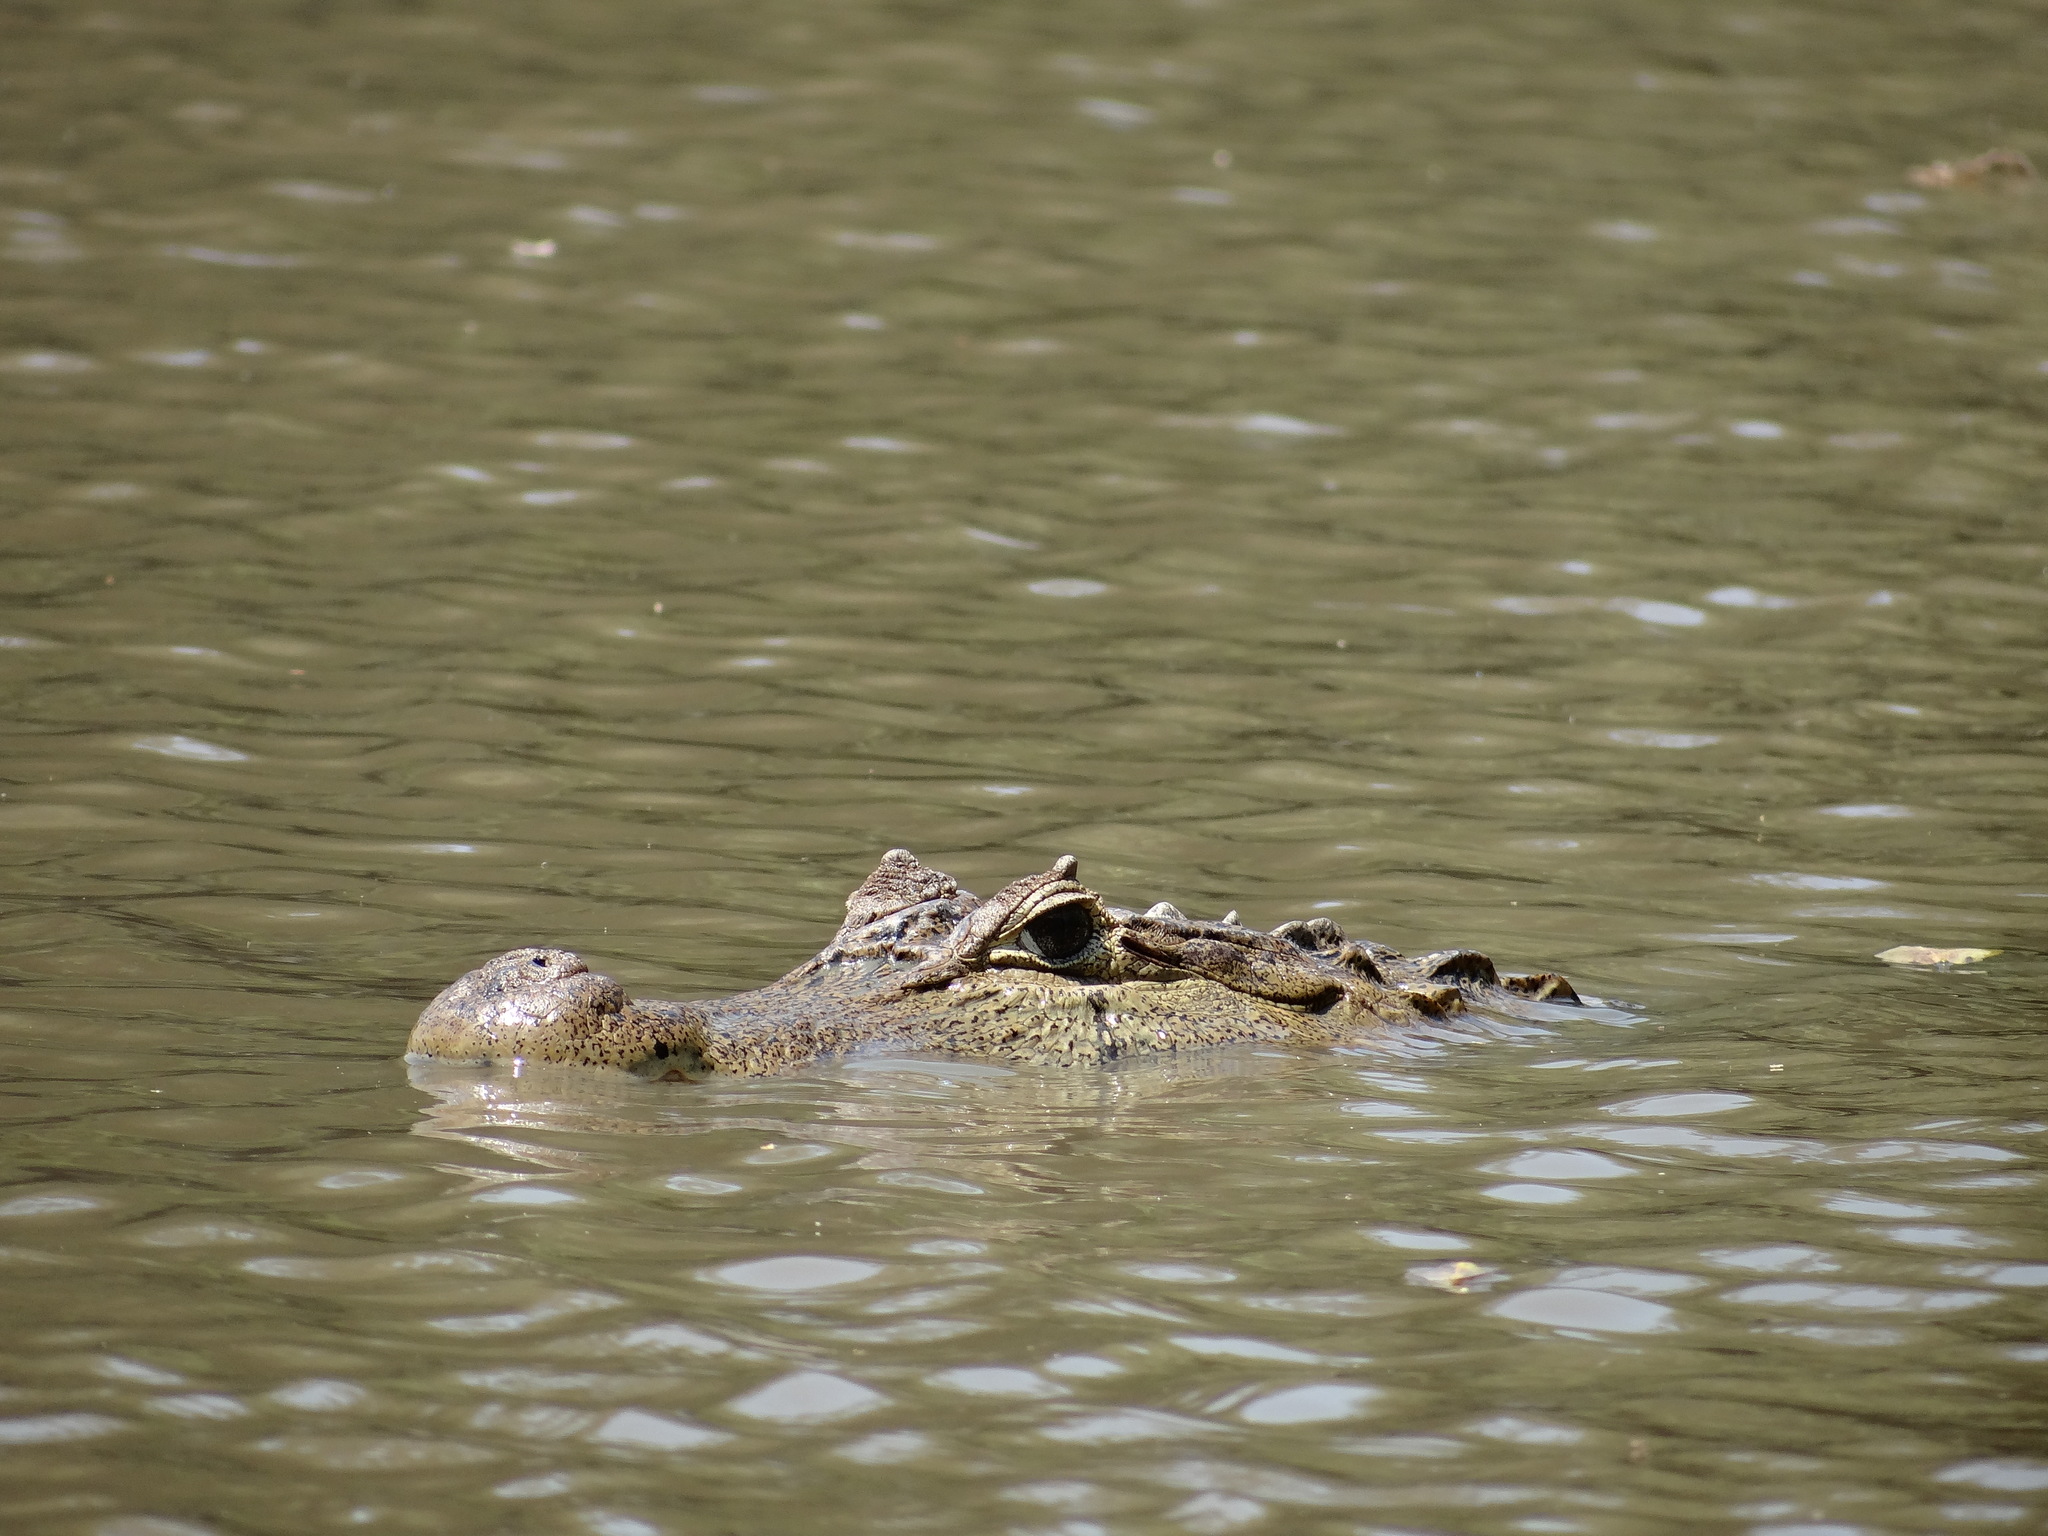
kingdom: Animalia
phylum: Chordata
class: Crocodylia
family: Alligatoridae
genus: Caiman
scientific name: Caiman crocodilus
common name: Common caiman
